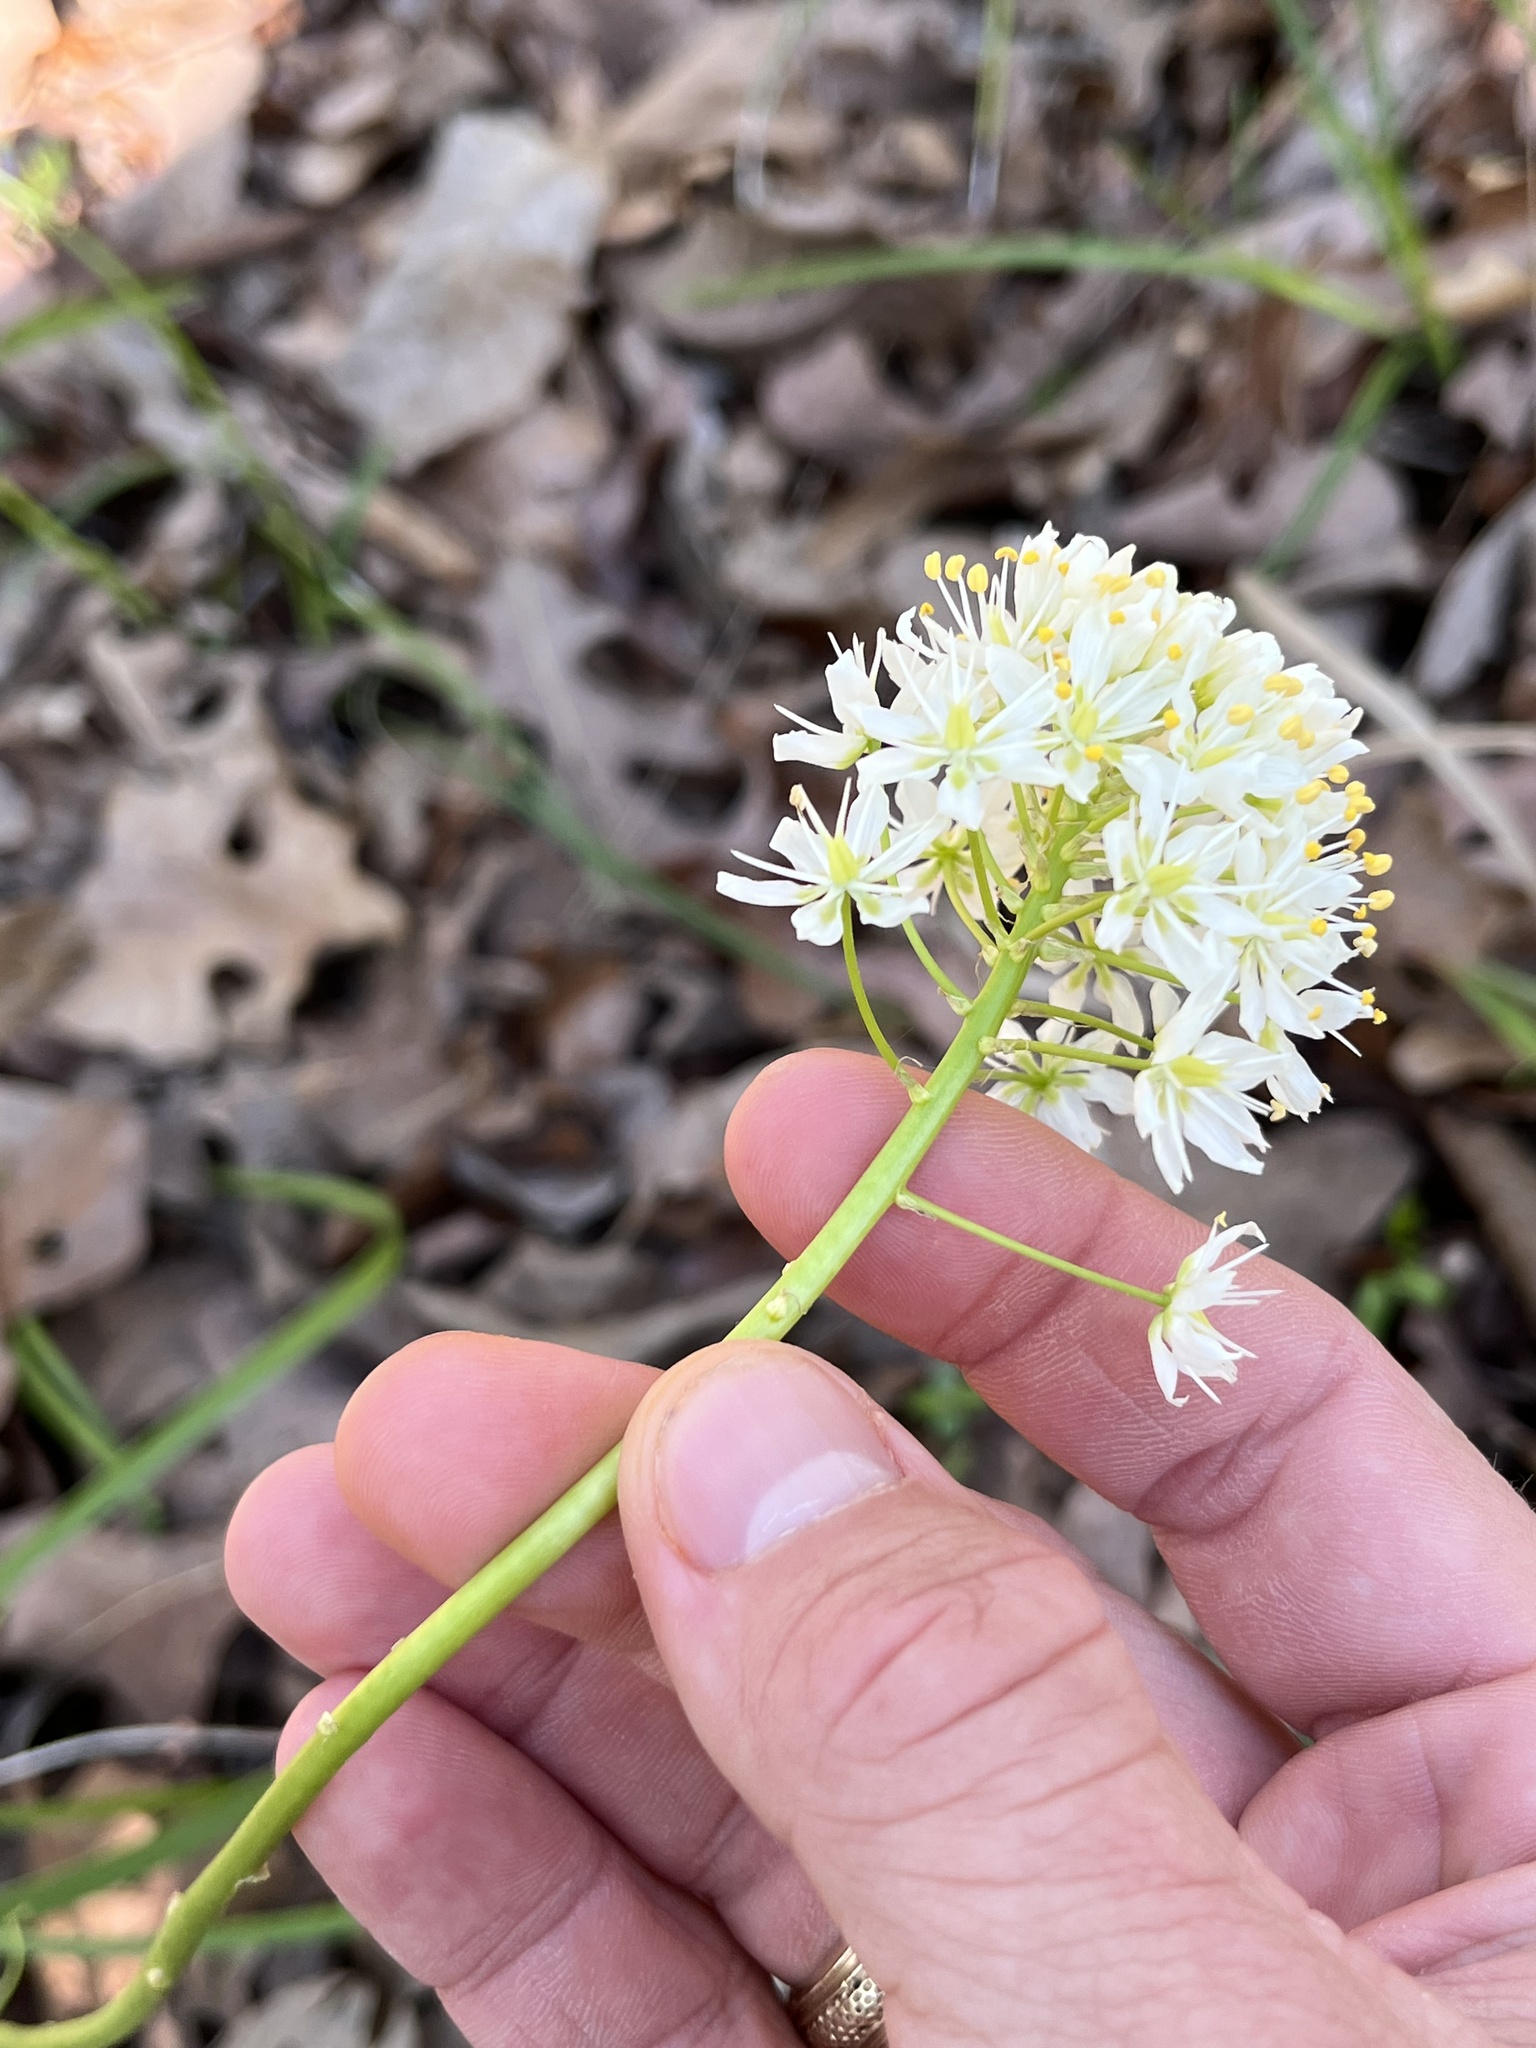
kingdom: Plantae
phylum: Tracheophyta
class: Liliopsida
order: Liliales
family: Melanthiaceae
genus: Toxicoscordion
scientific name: Toxicoscordion nuttallii
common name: Poison sego
